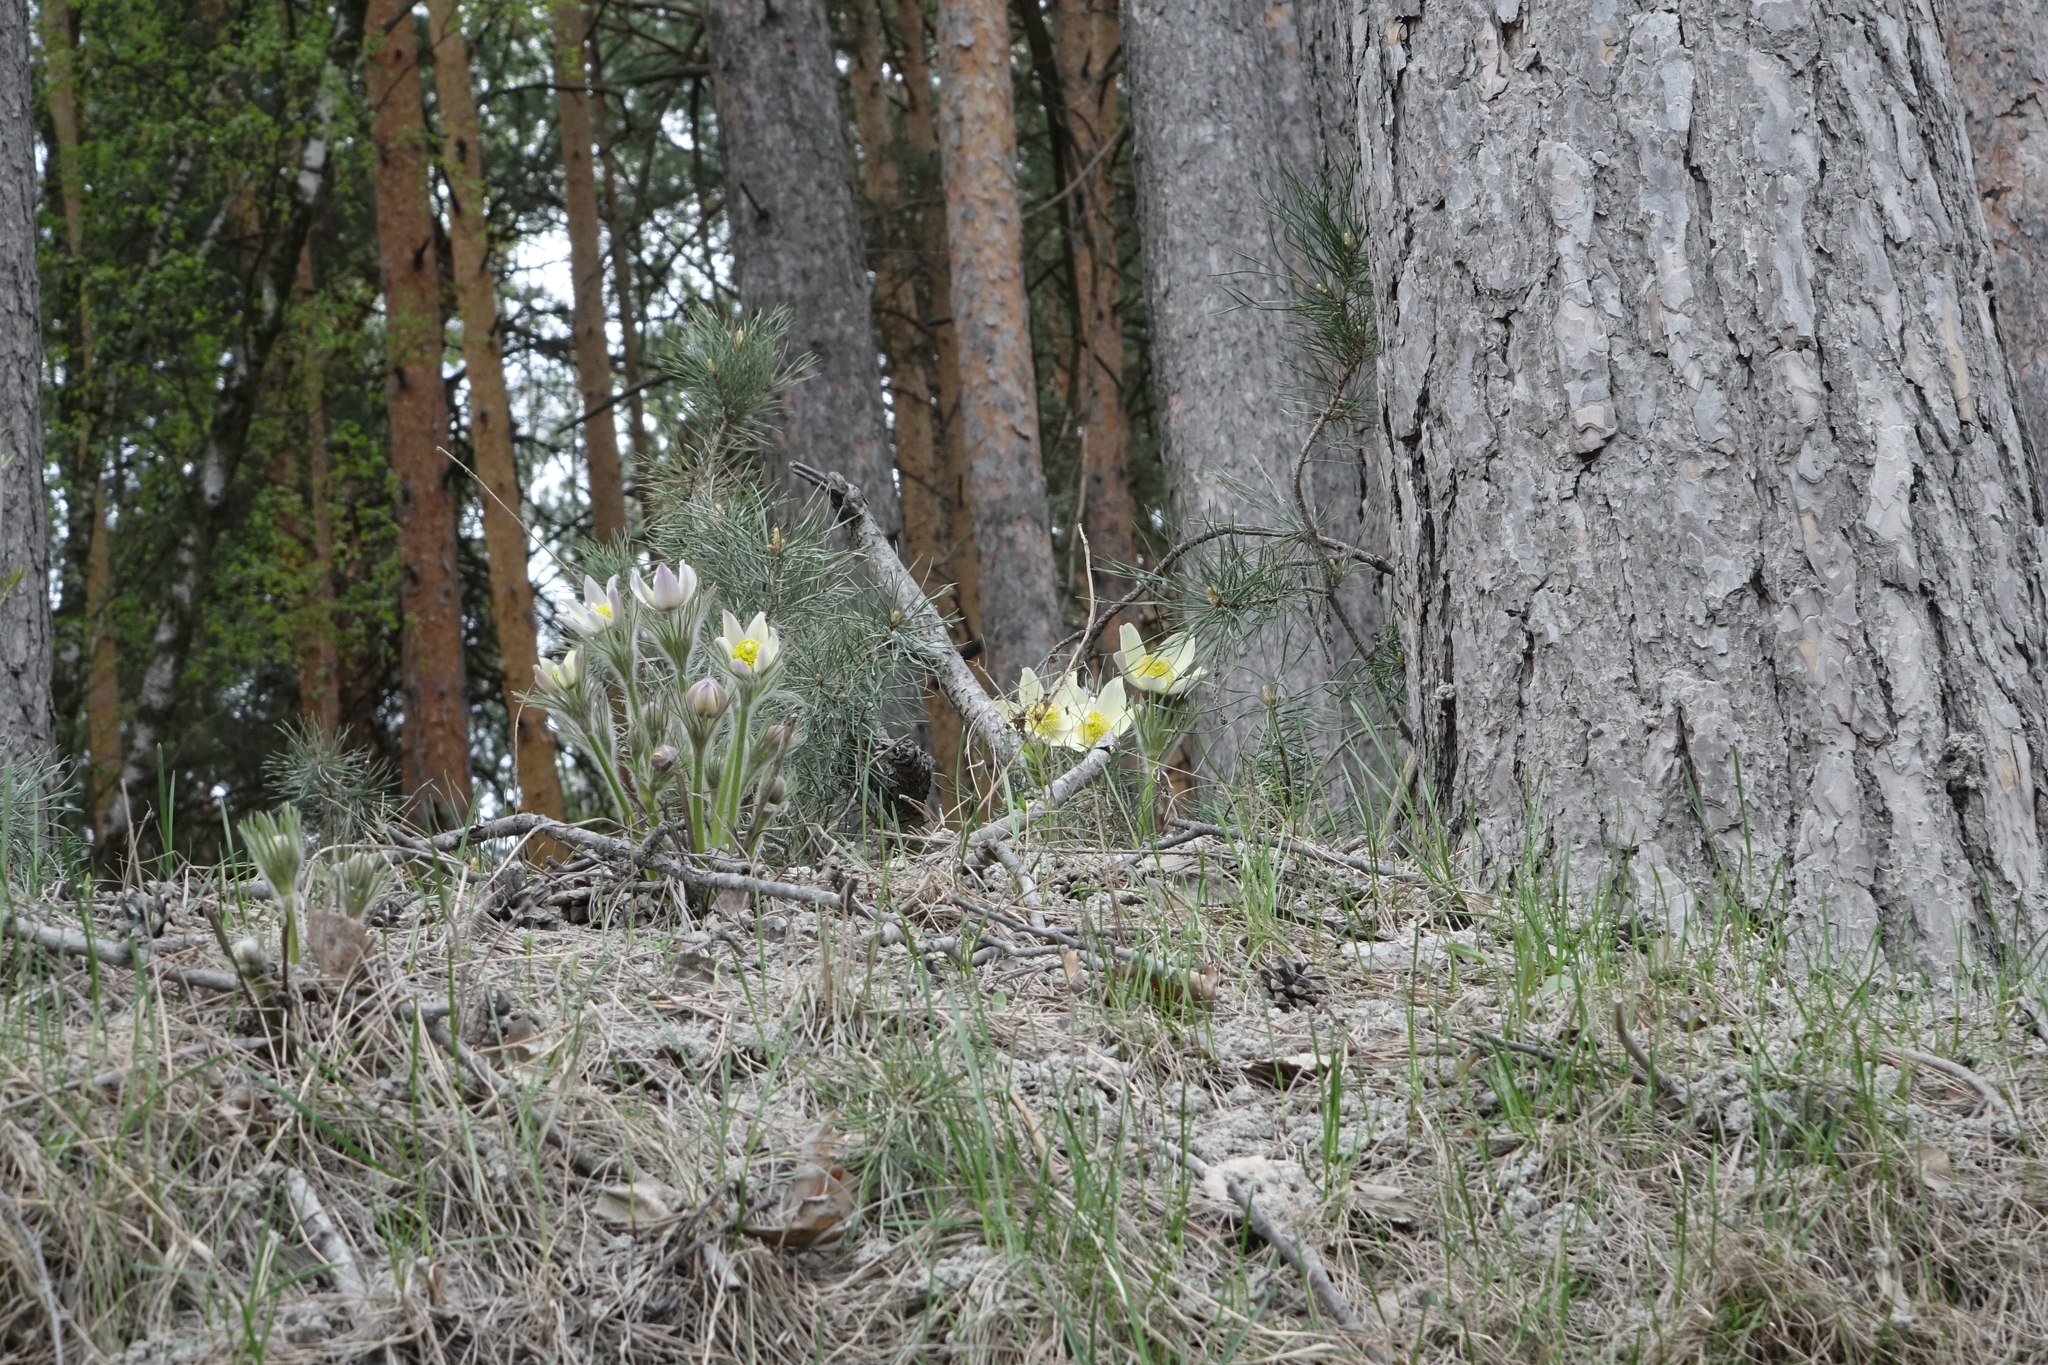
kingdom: Plantae
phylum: Tracheophyta
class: Magnoliopsida
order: Ranunculales
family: Ranunculaceae
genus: Pulsatilla
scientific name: Pulsatilla patens
